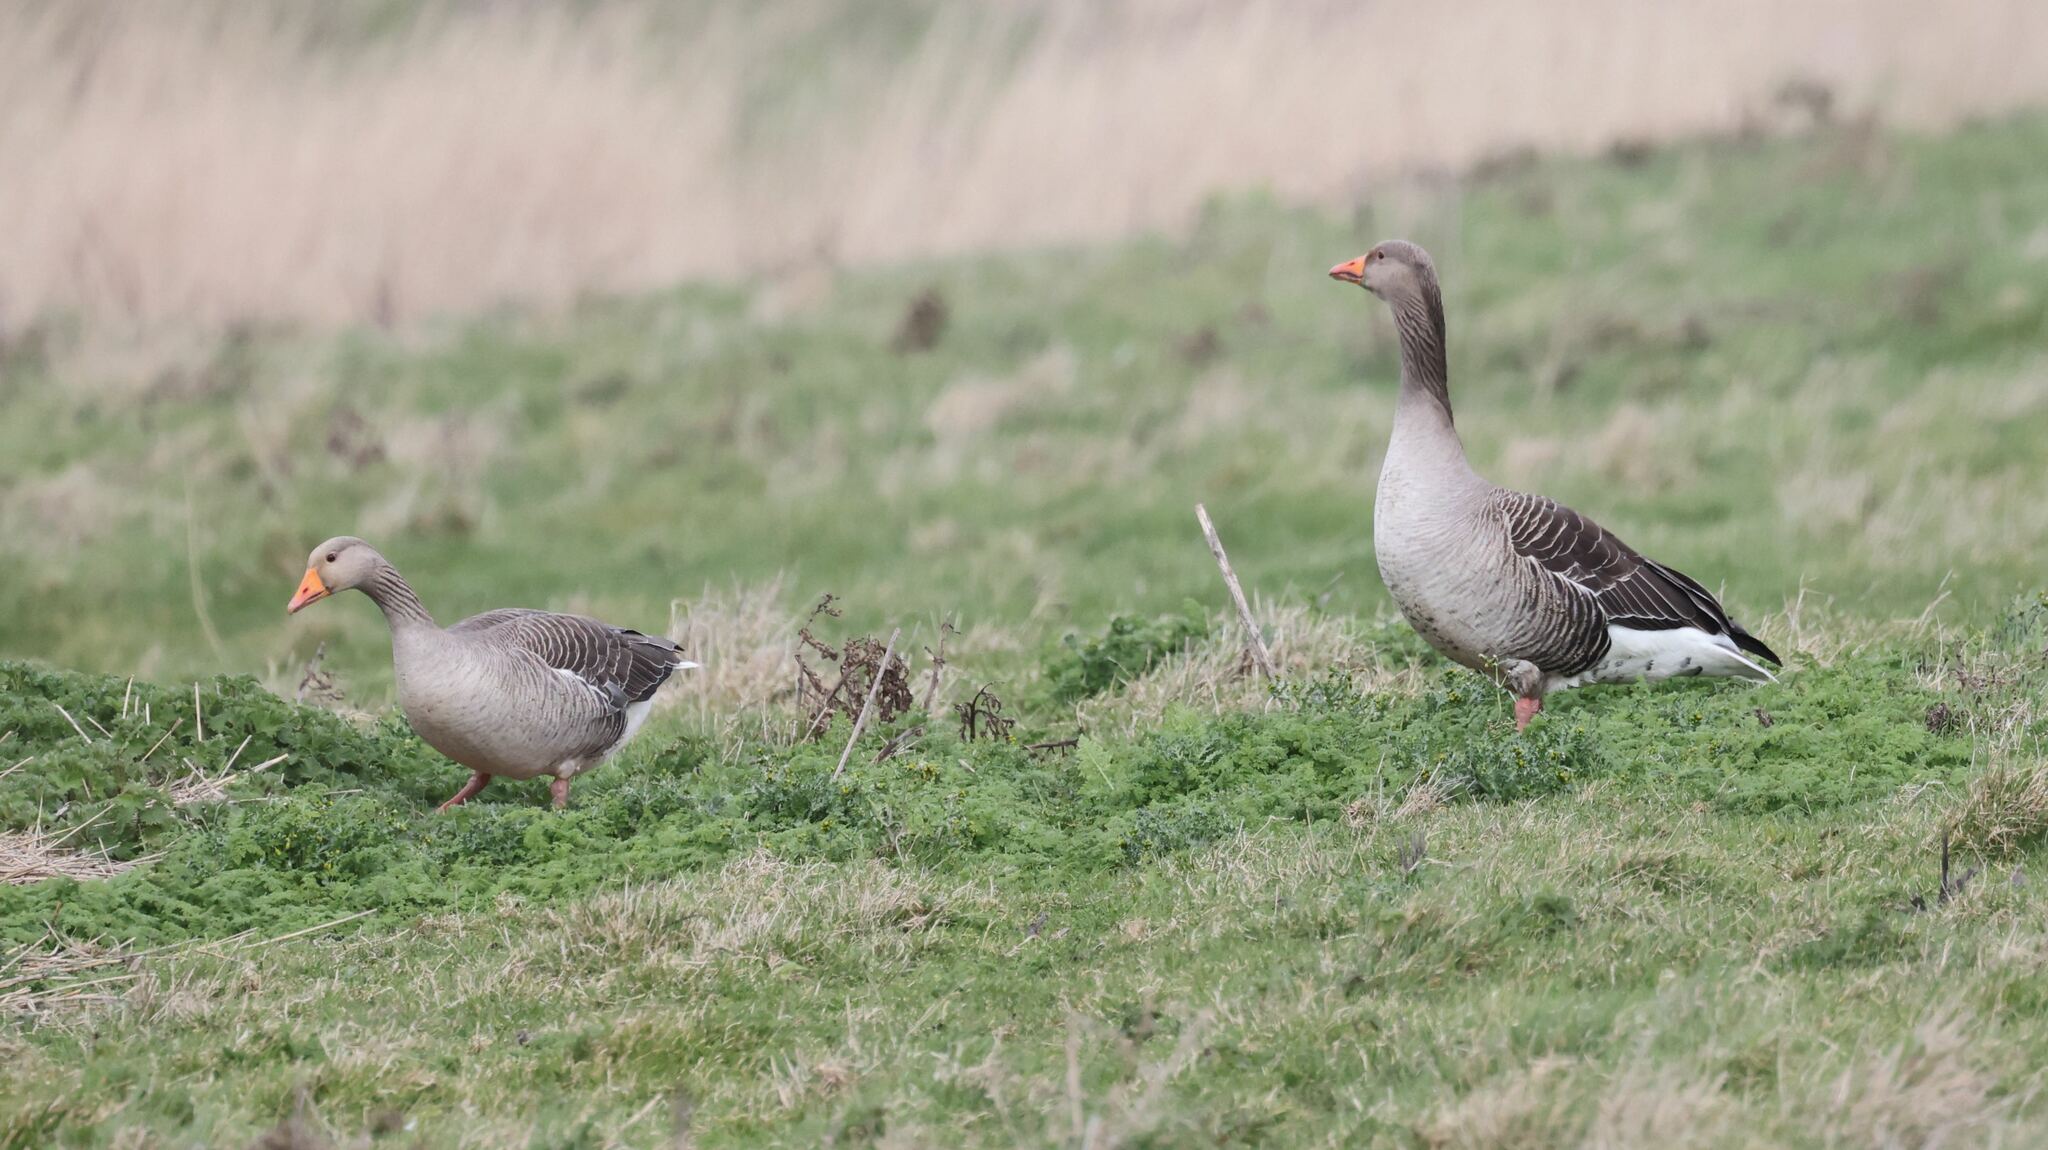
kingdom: Animalia
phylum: Chordata
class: Aves
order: Anseriformes
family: Anatidae
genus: Anser
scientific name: Anser anser
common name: Greylag goose
